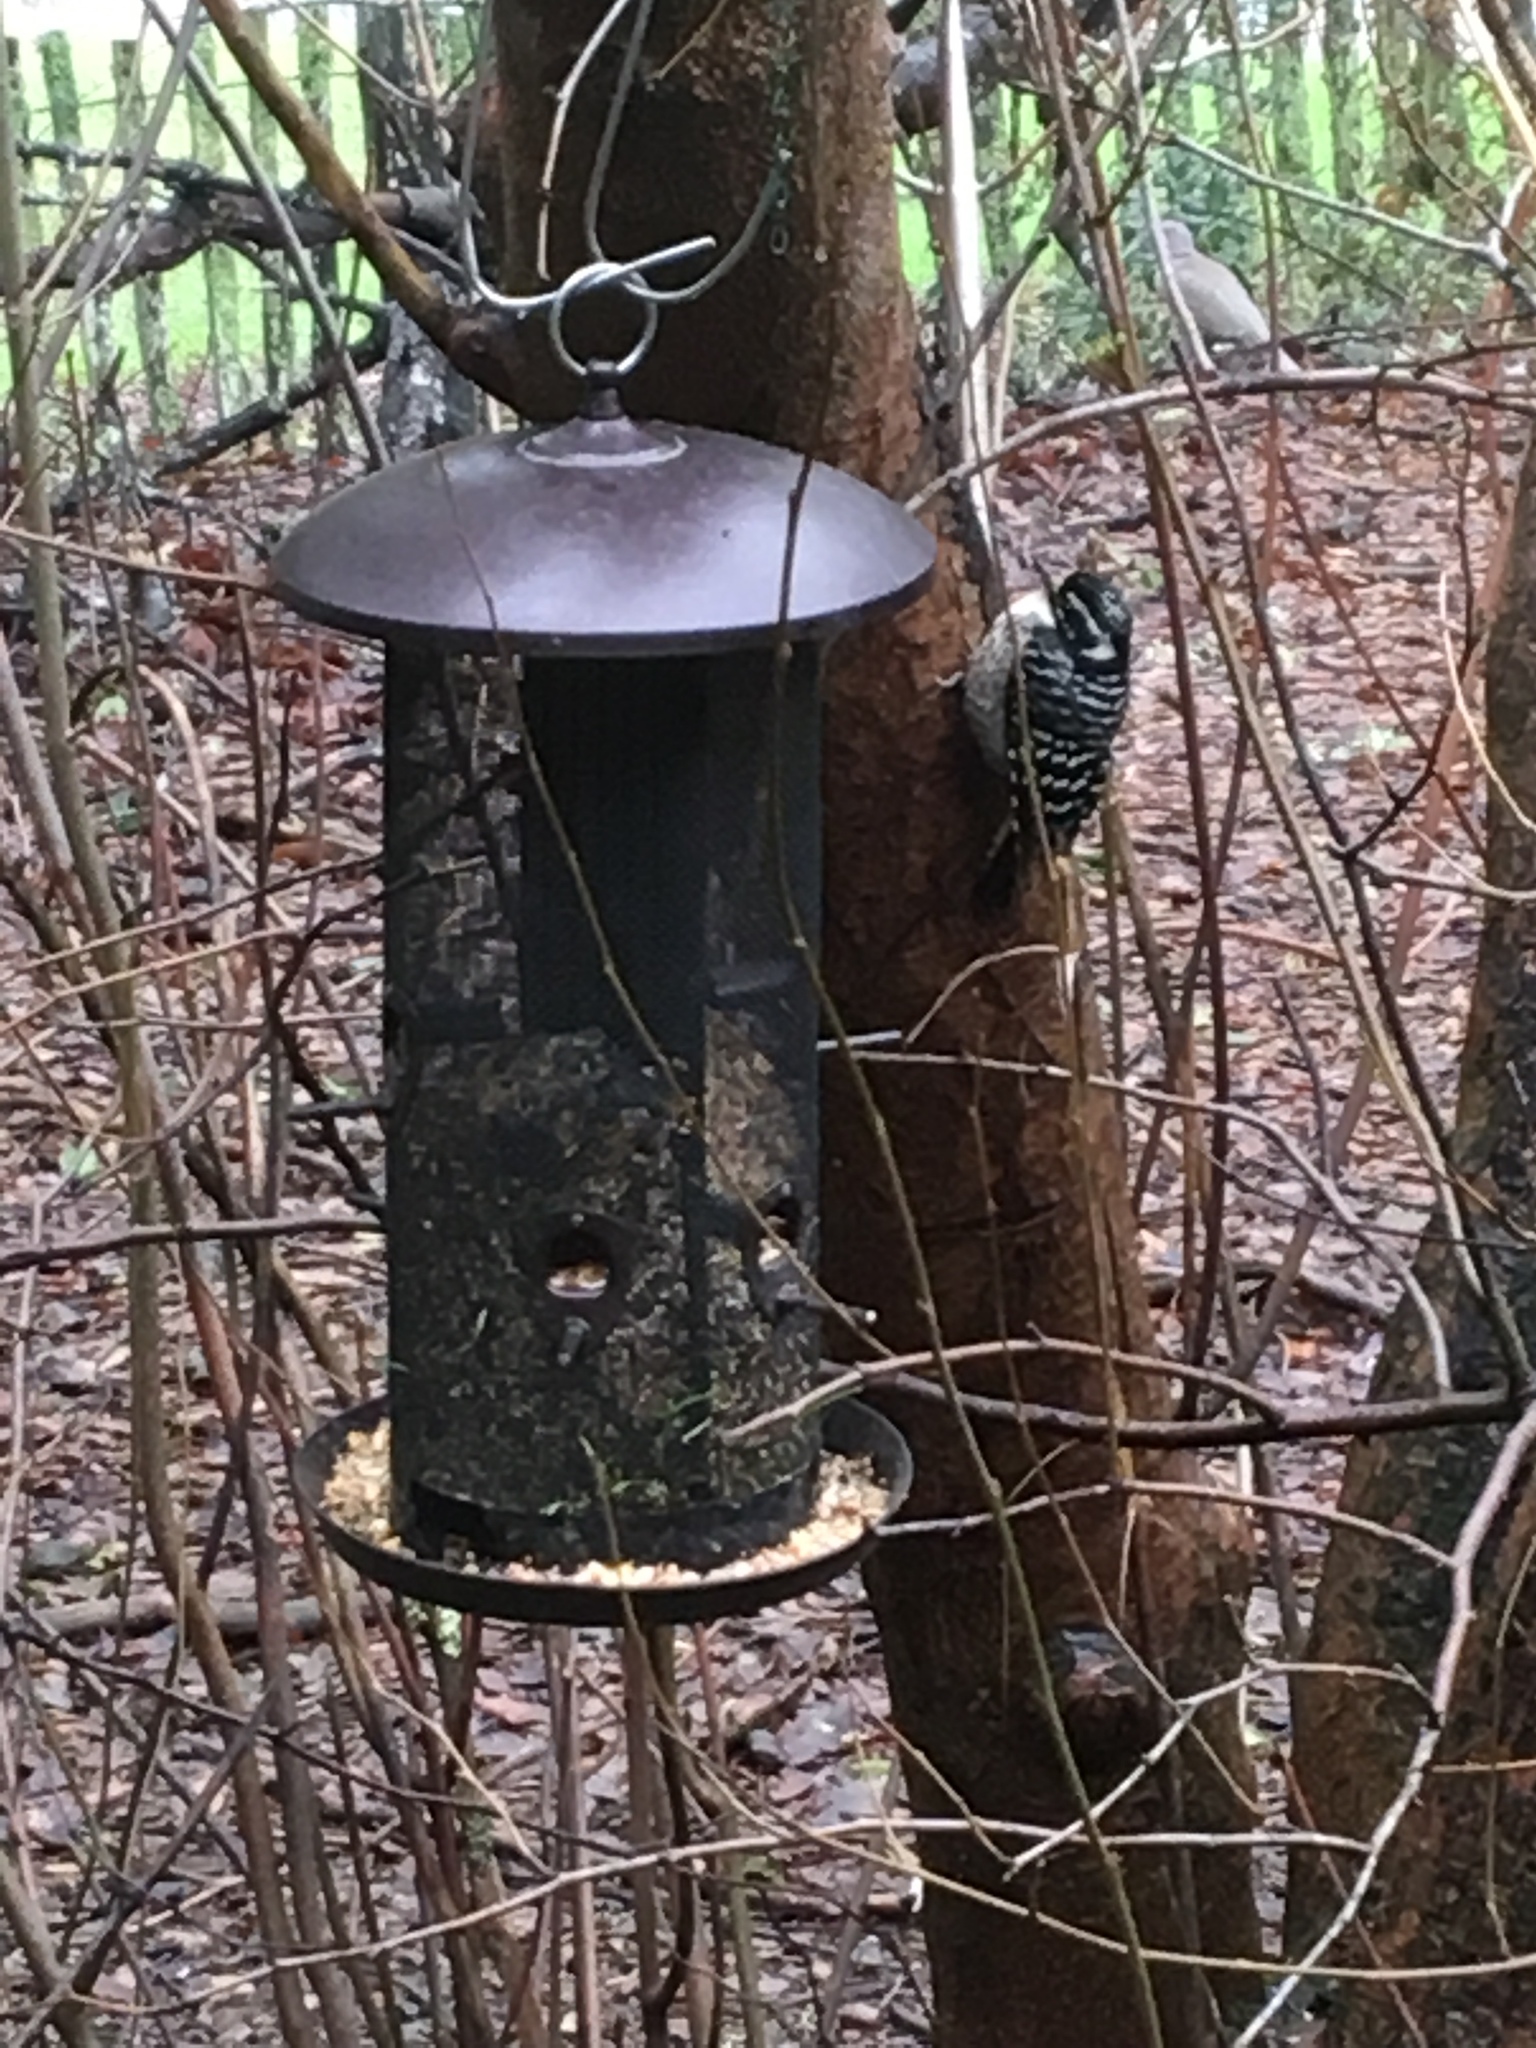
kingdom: Animalia
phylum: Chordata
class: Aves
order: Piciformes
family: Picidae
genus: Dryobates
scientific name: Dryobates nuttallii
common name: Nuttall's woodpecker
